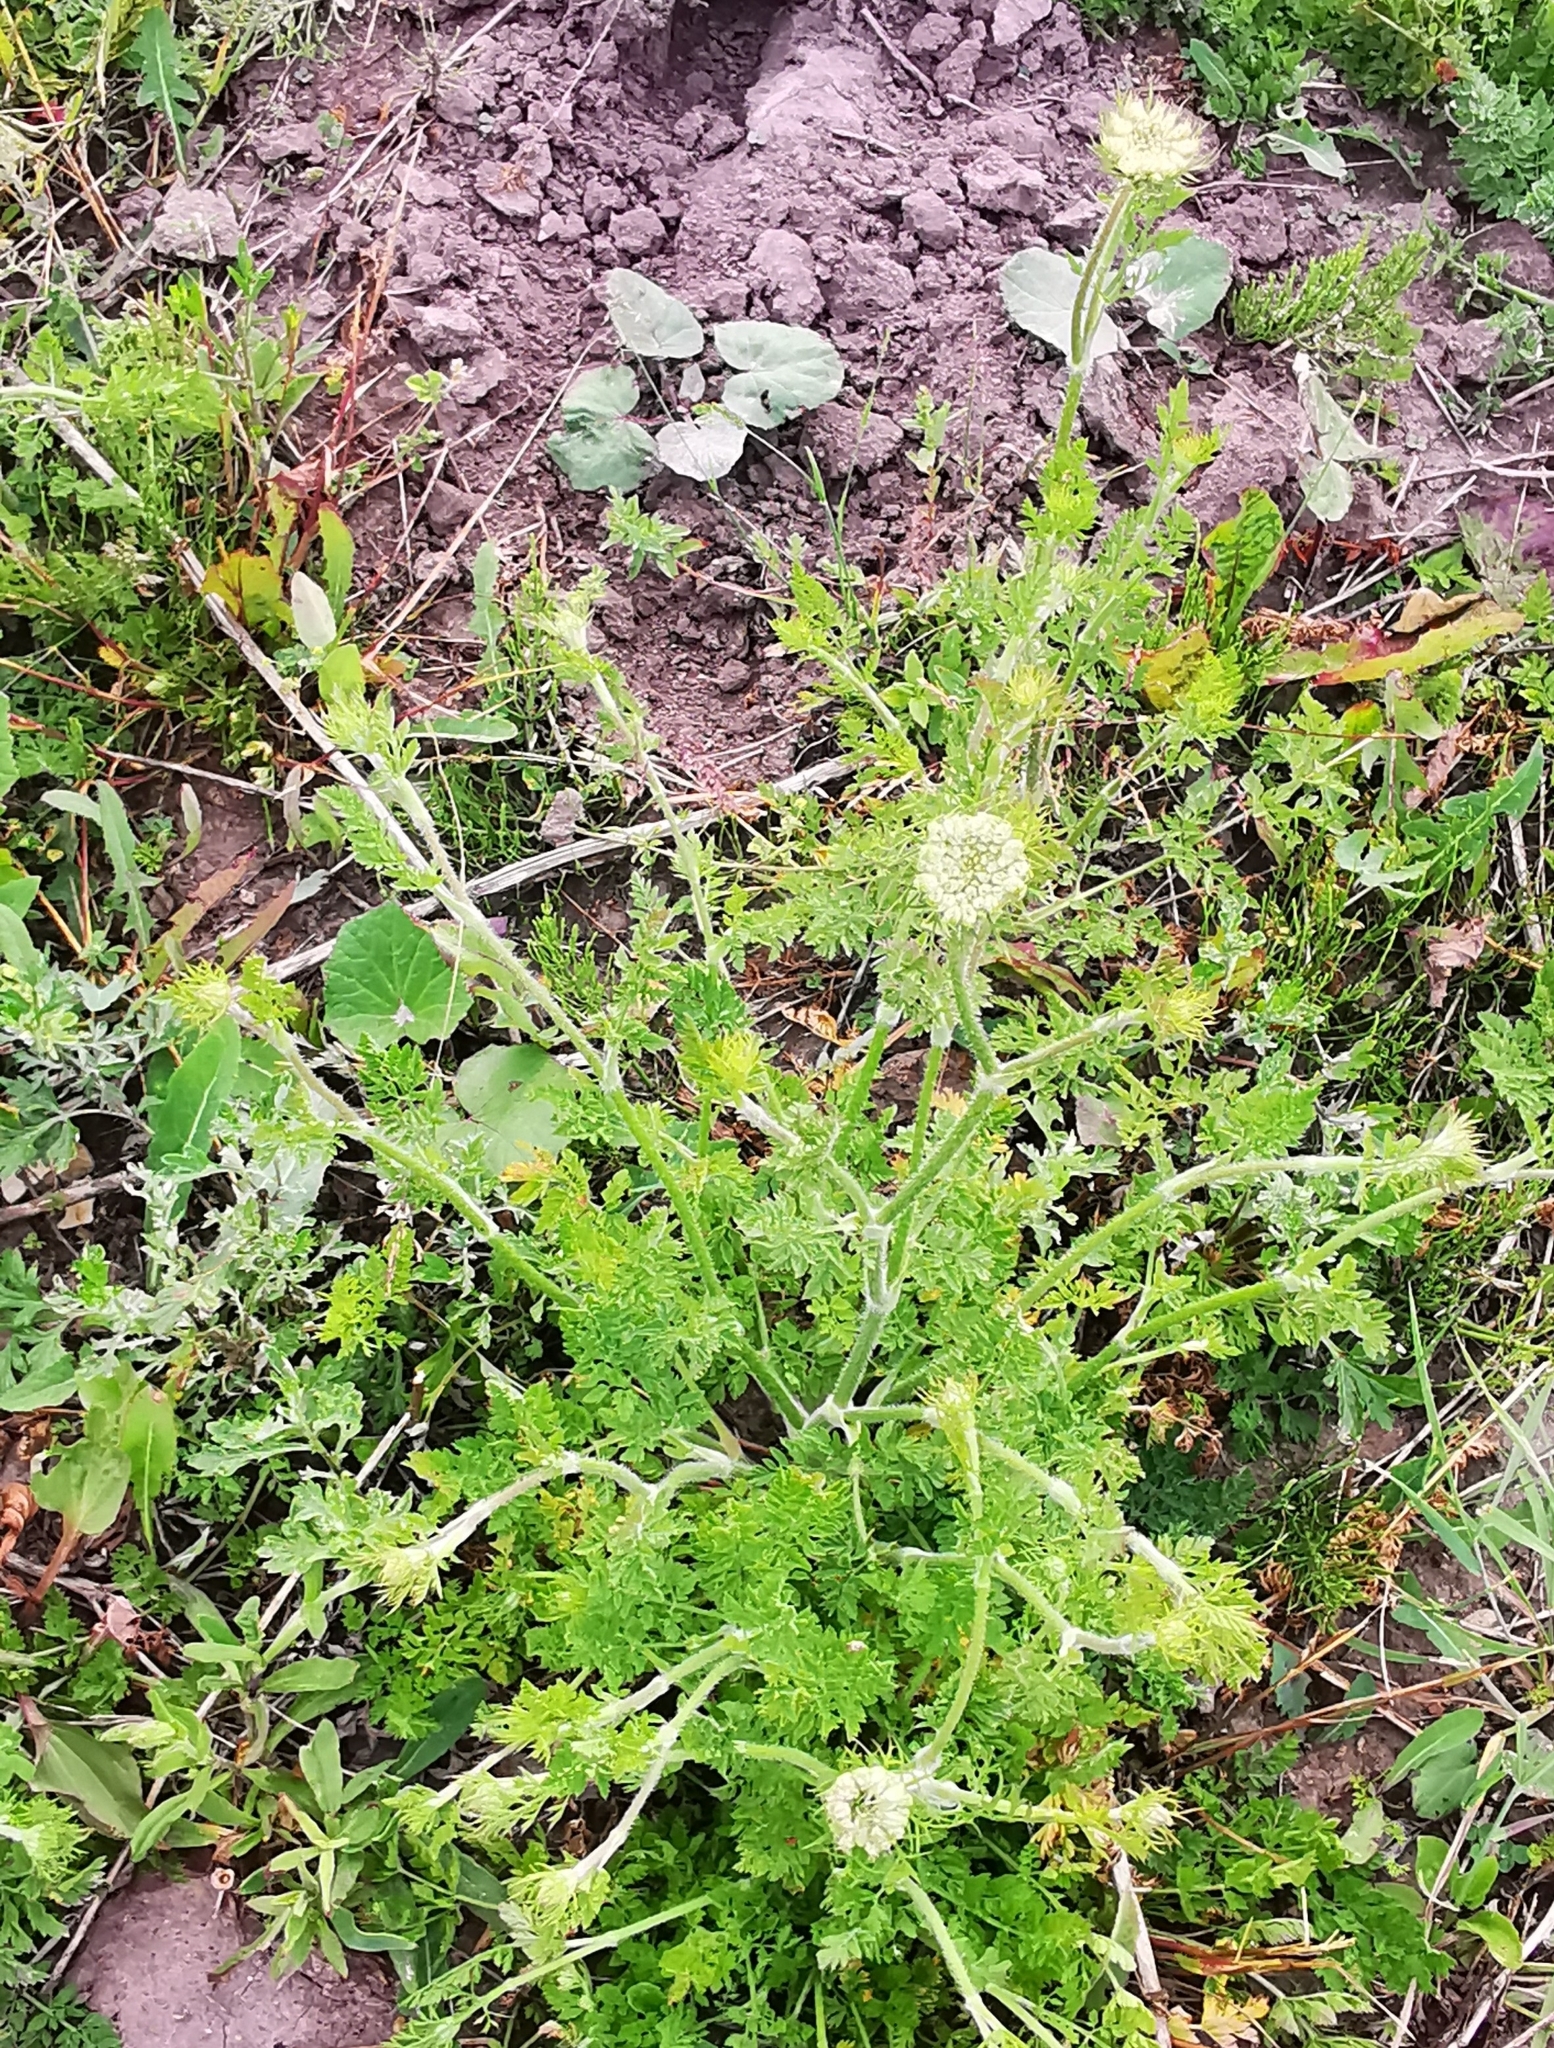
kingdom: Plantae
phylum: Tracheophyta
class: Magnoliopsida
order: Apiales
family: Apiaceae
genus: Daucus
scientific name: Daucus carota
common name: Wild carrot
